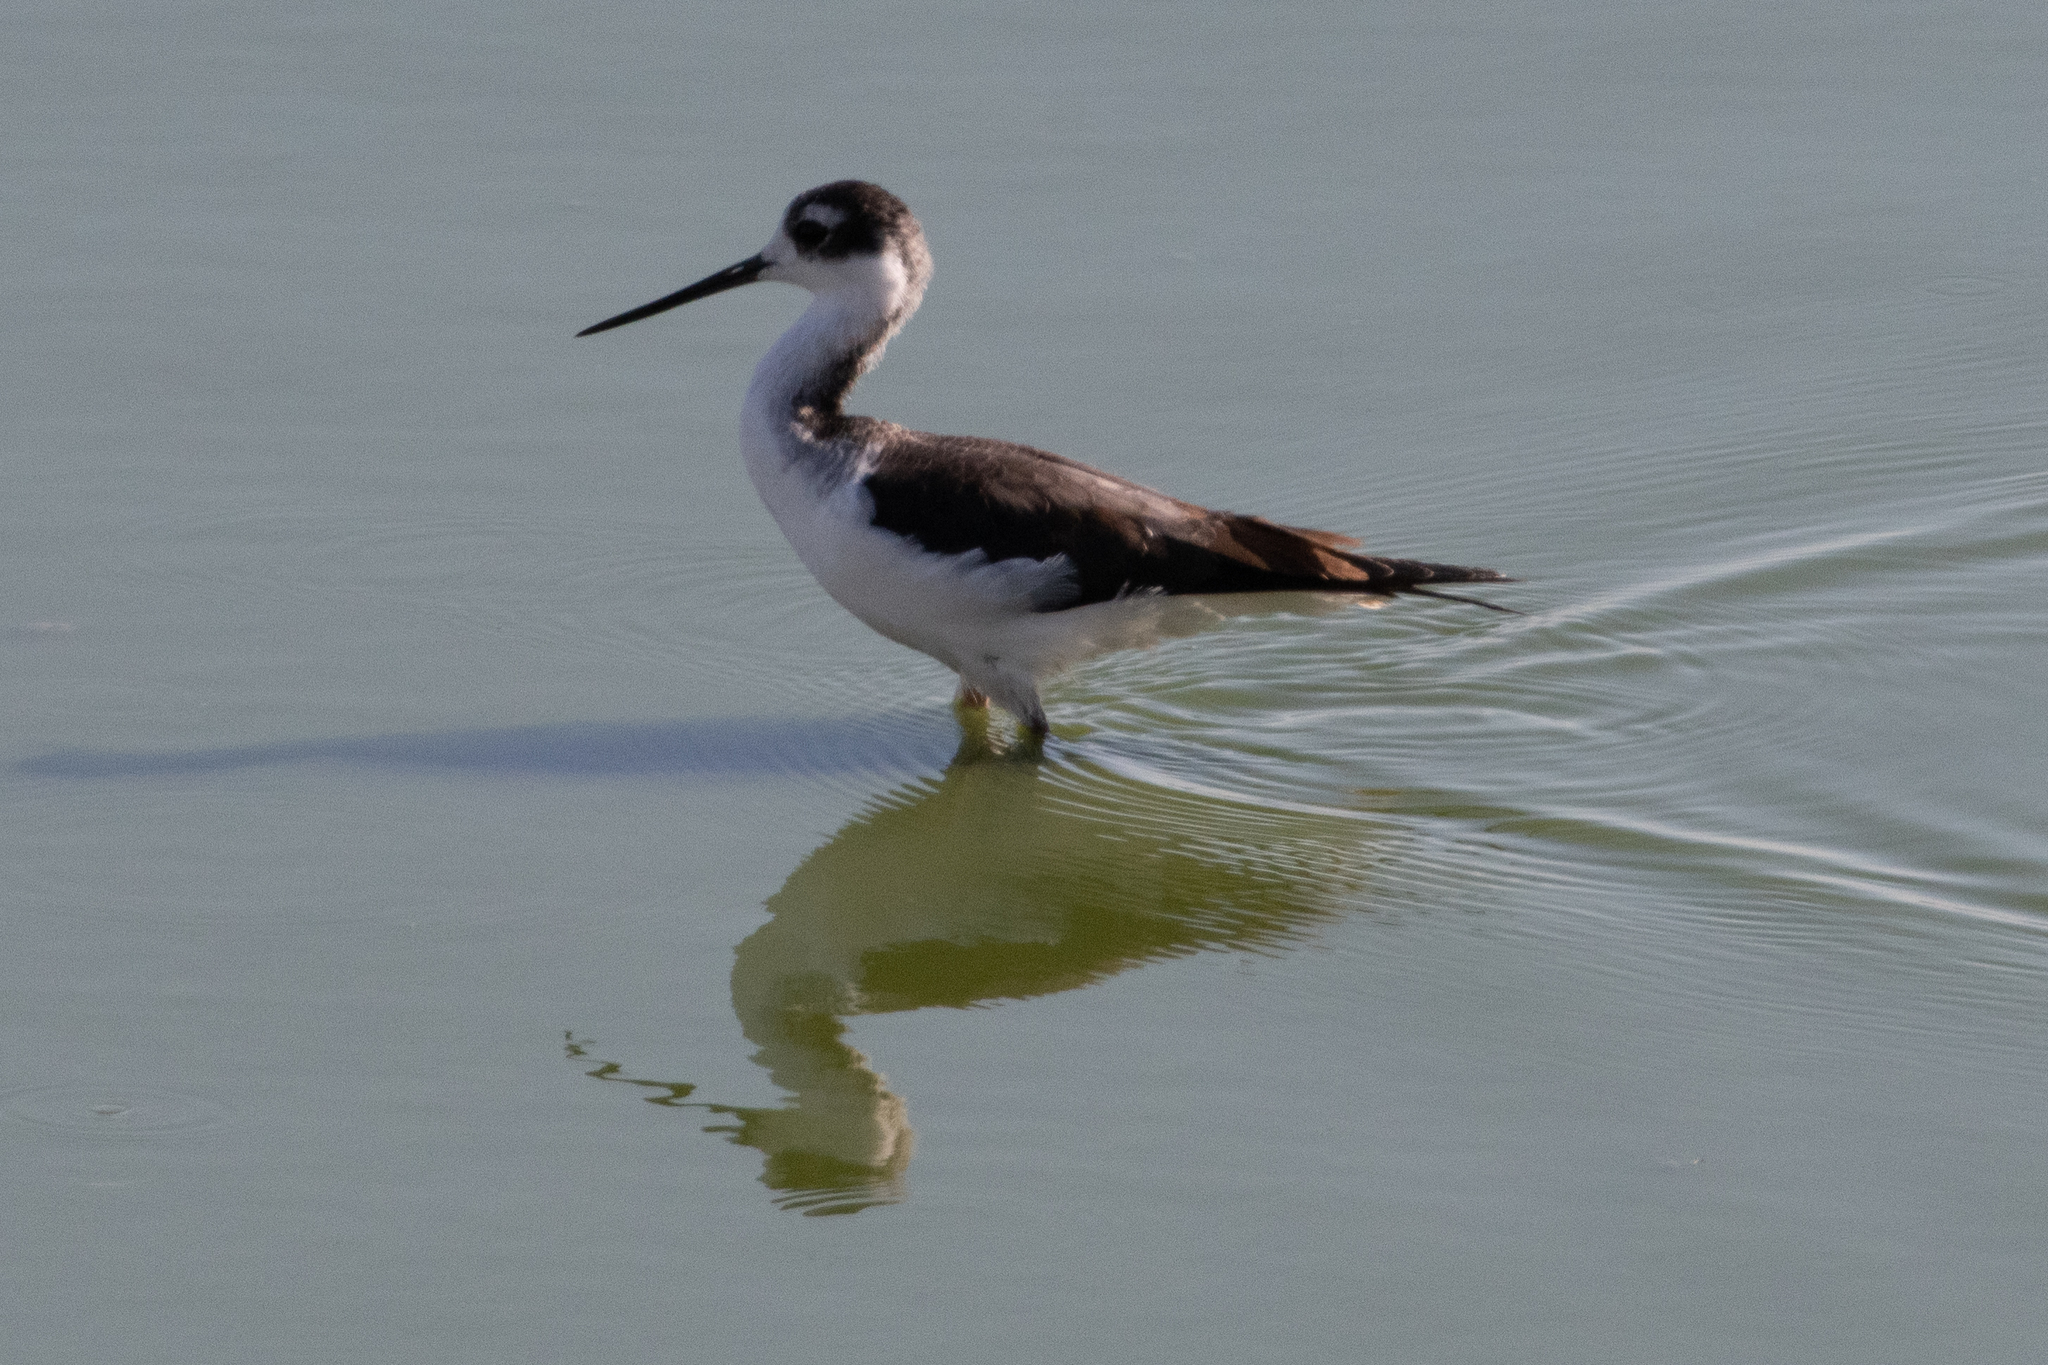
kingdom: Animalia
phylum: Chordata
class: Aves
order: Charadriiformes
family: Recurvirostridae
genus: Himantopus
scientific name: Himantopus mexicanus
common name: Black-necked stilt
